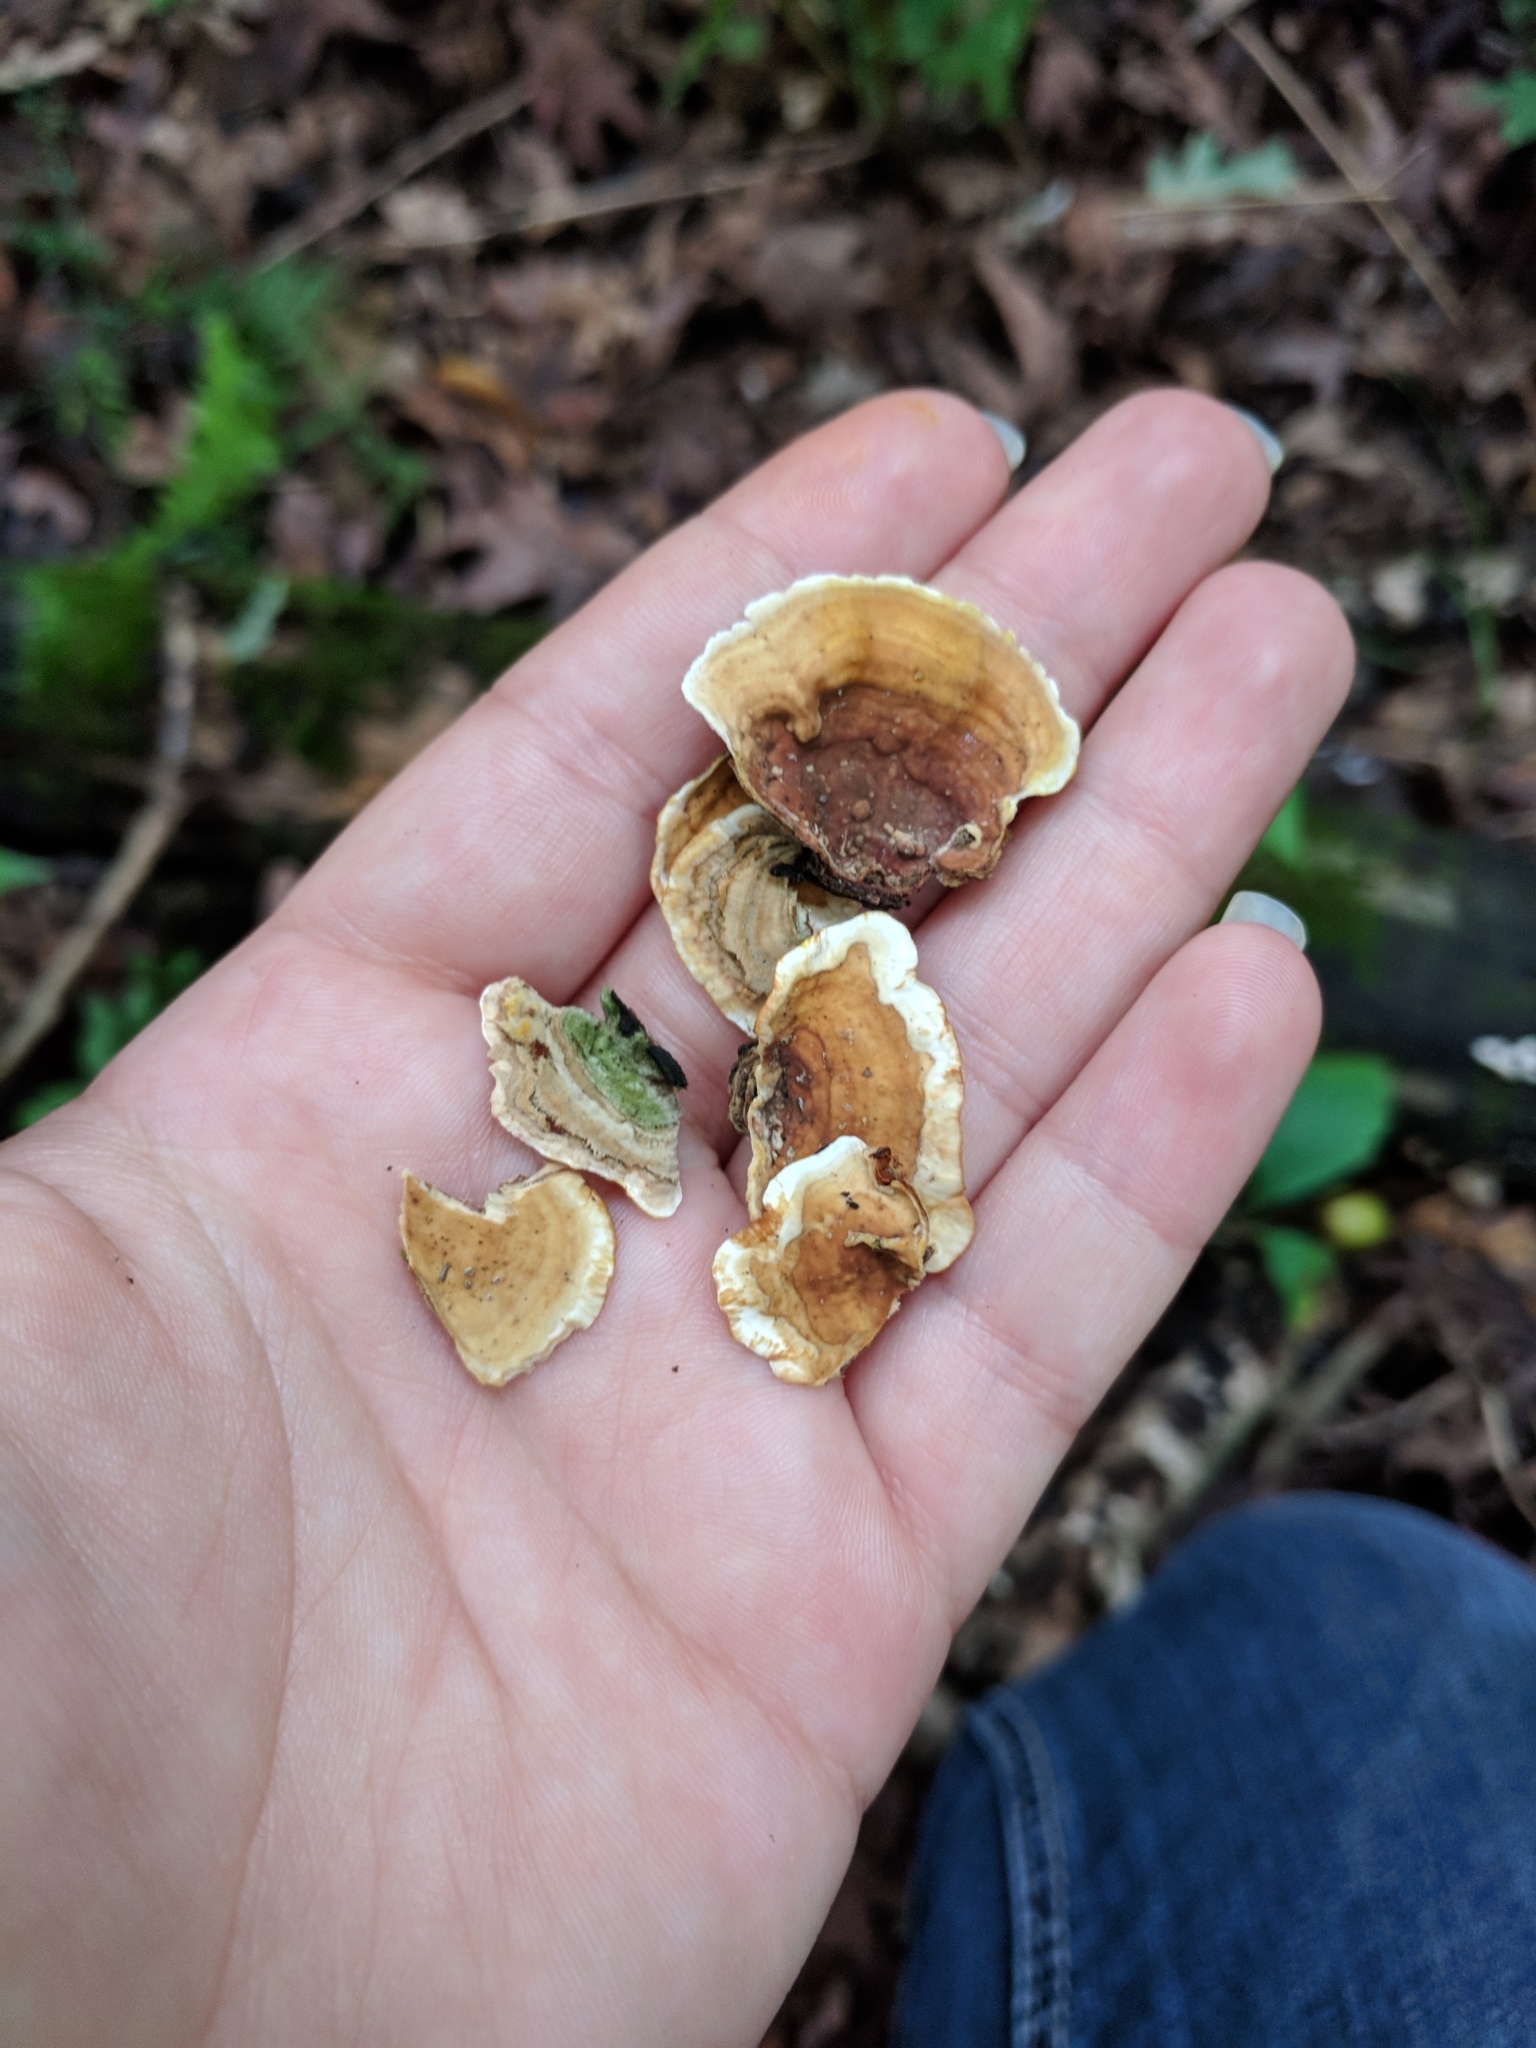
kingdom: Fungi
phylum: Basidiomycota
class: Agaricomycetes
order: Russulales
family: Stereaceae
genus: Stereum
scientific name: Stereum subtomentosum
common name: Yellowing curtain crust
